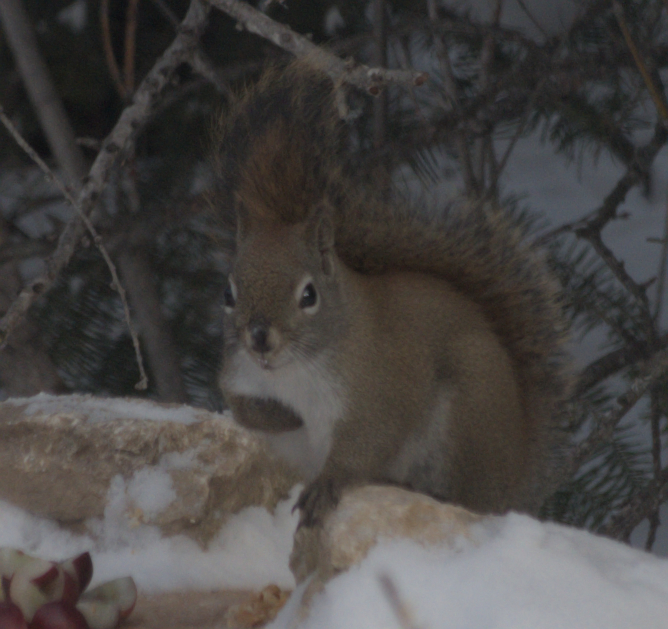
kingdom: Animalia
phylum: Chordata
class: Mammalia
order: Rodentia
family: Sciuridae
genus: Tamiasciurus
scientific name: Tamiasciurus hudsonicus
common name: Red squirrel
